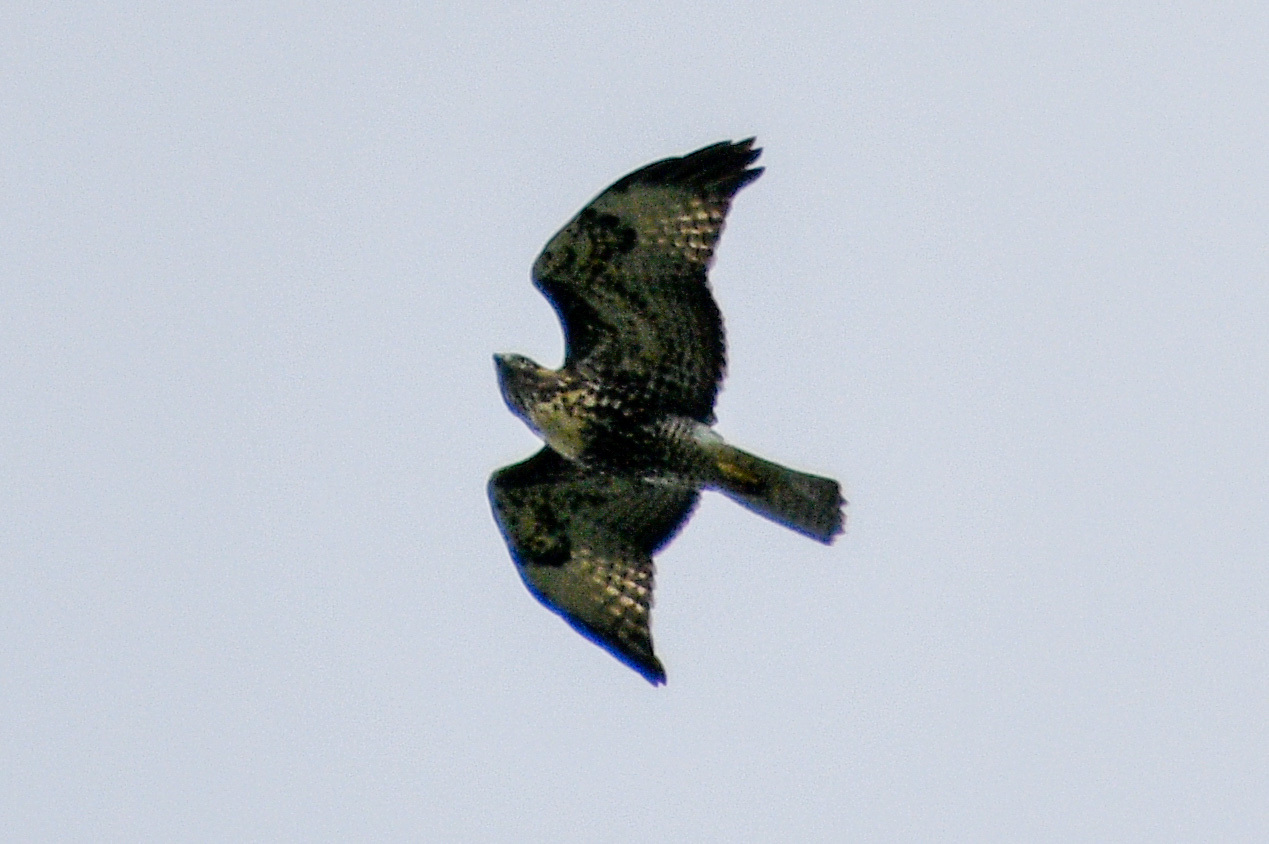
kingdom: Animalia
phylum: Chordata
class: Aves
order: Accipitriformes
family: Accipitridae
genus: Buteo
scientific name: Buteo jamaicensis
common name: Red-tailed hawk
